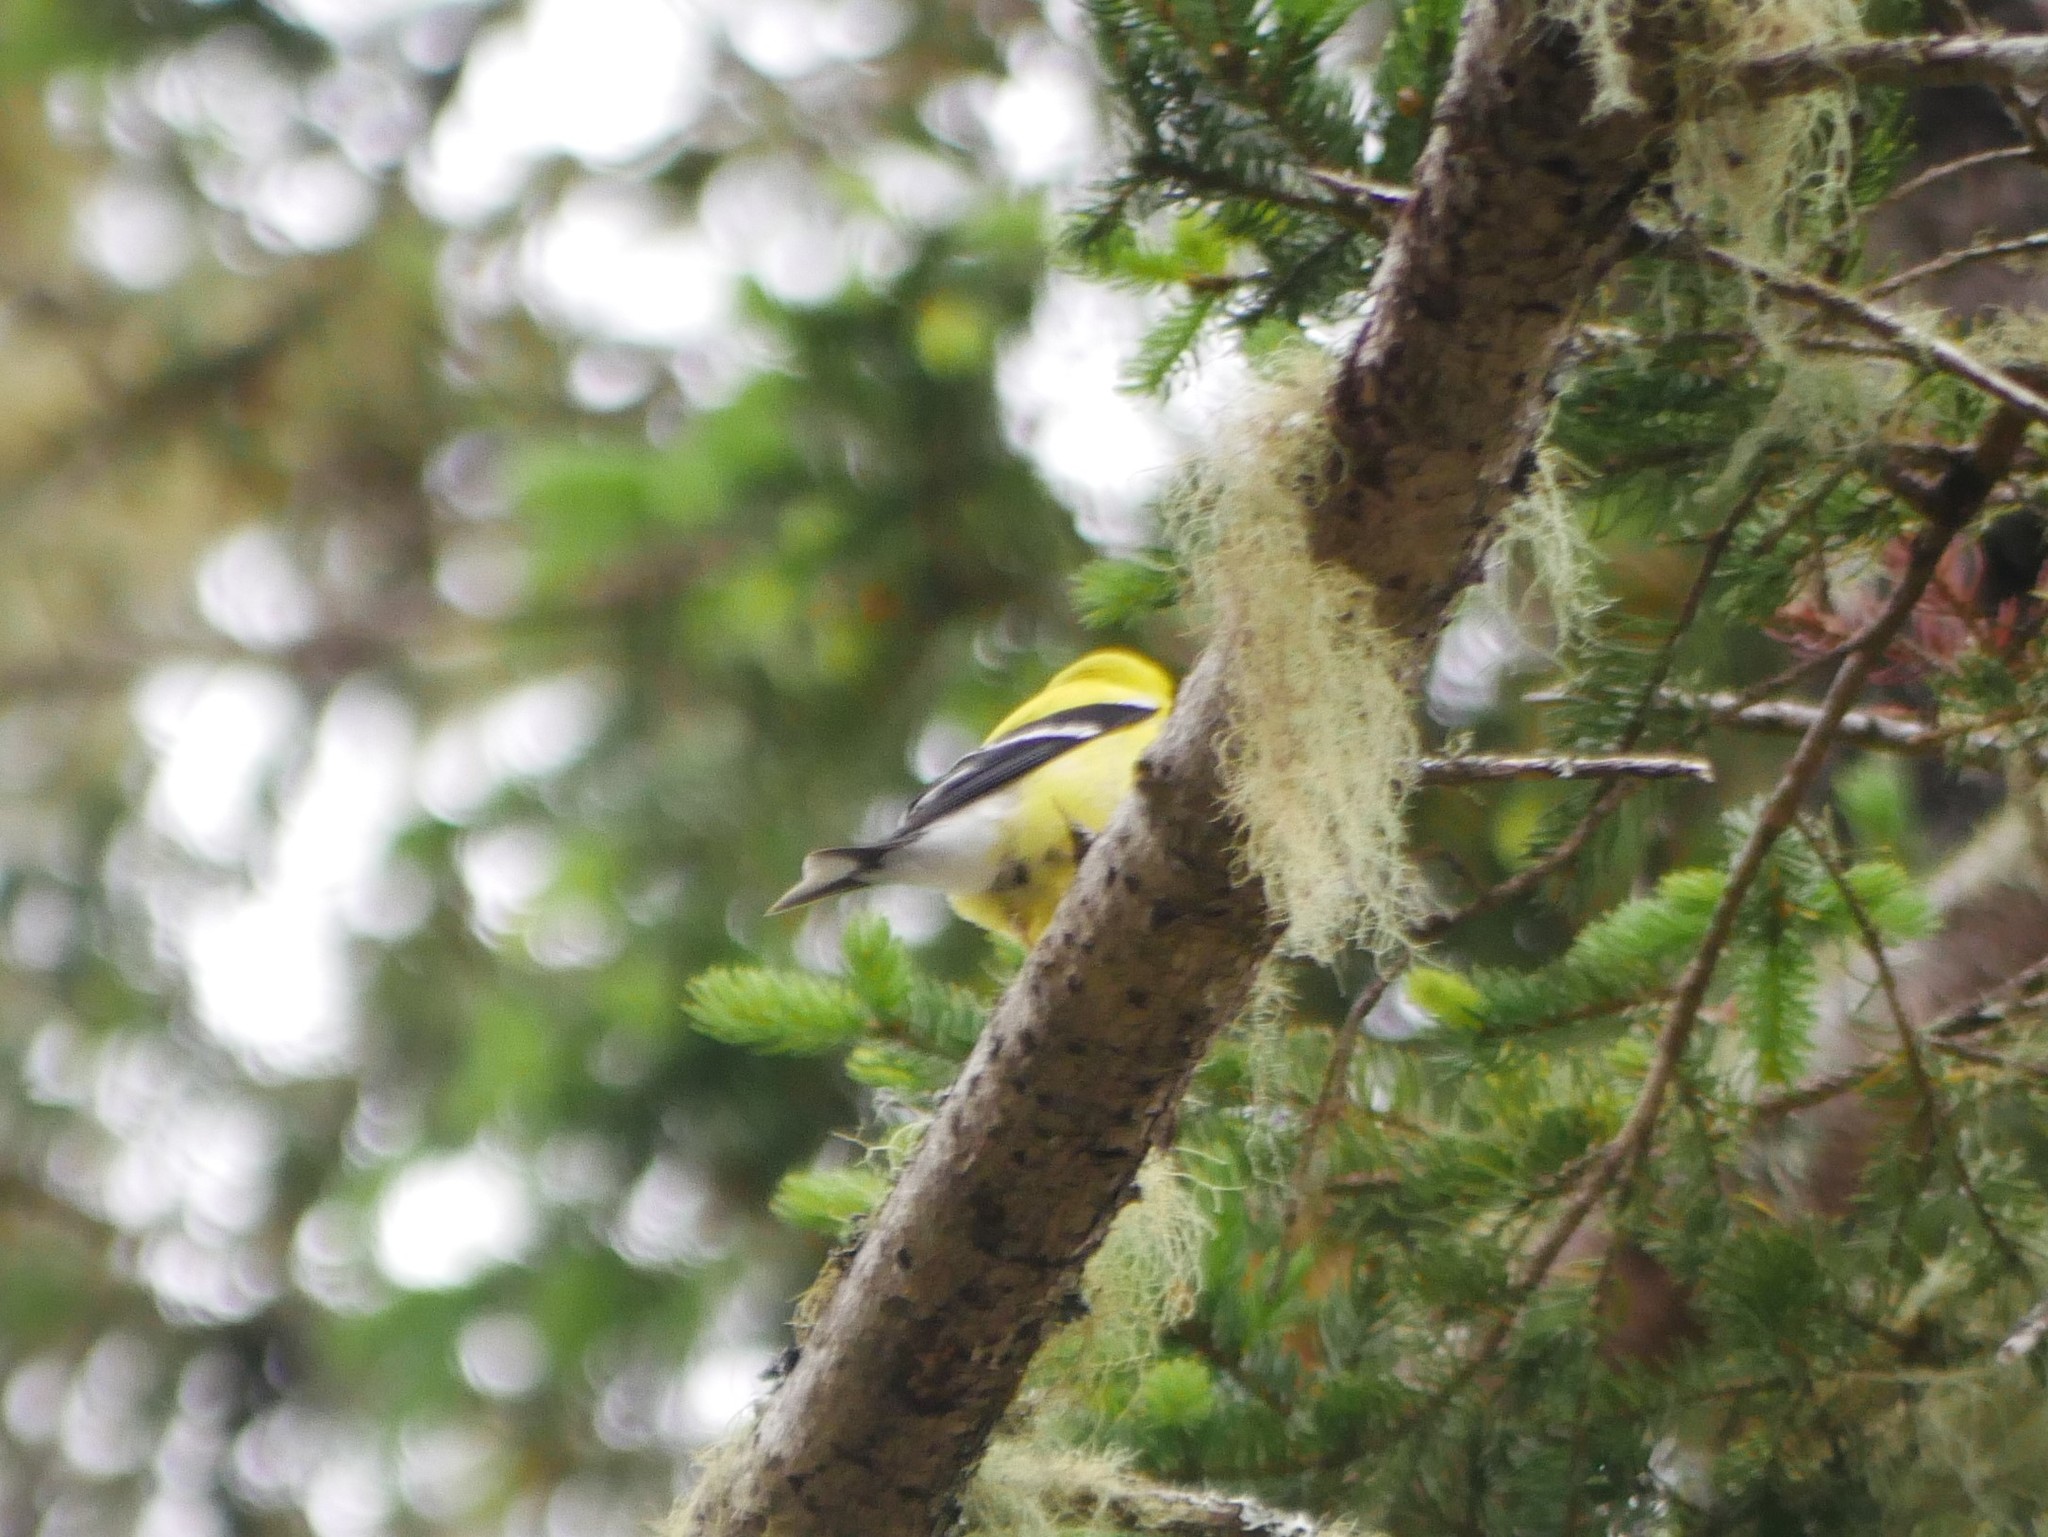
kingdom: Animalia
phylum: Chordata
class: Aves
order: Passeriformes
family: Fringillidae
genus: Spinus
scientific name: Spinus tristis
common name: American goldfinch
